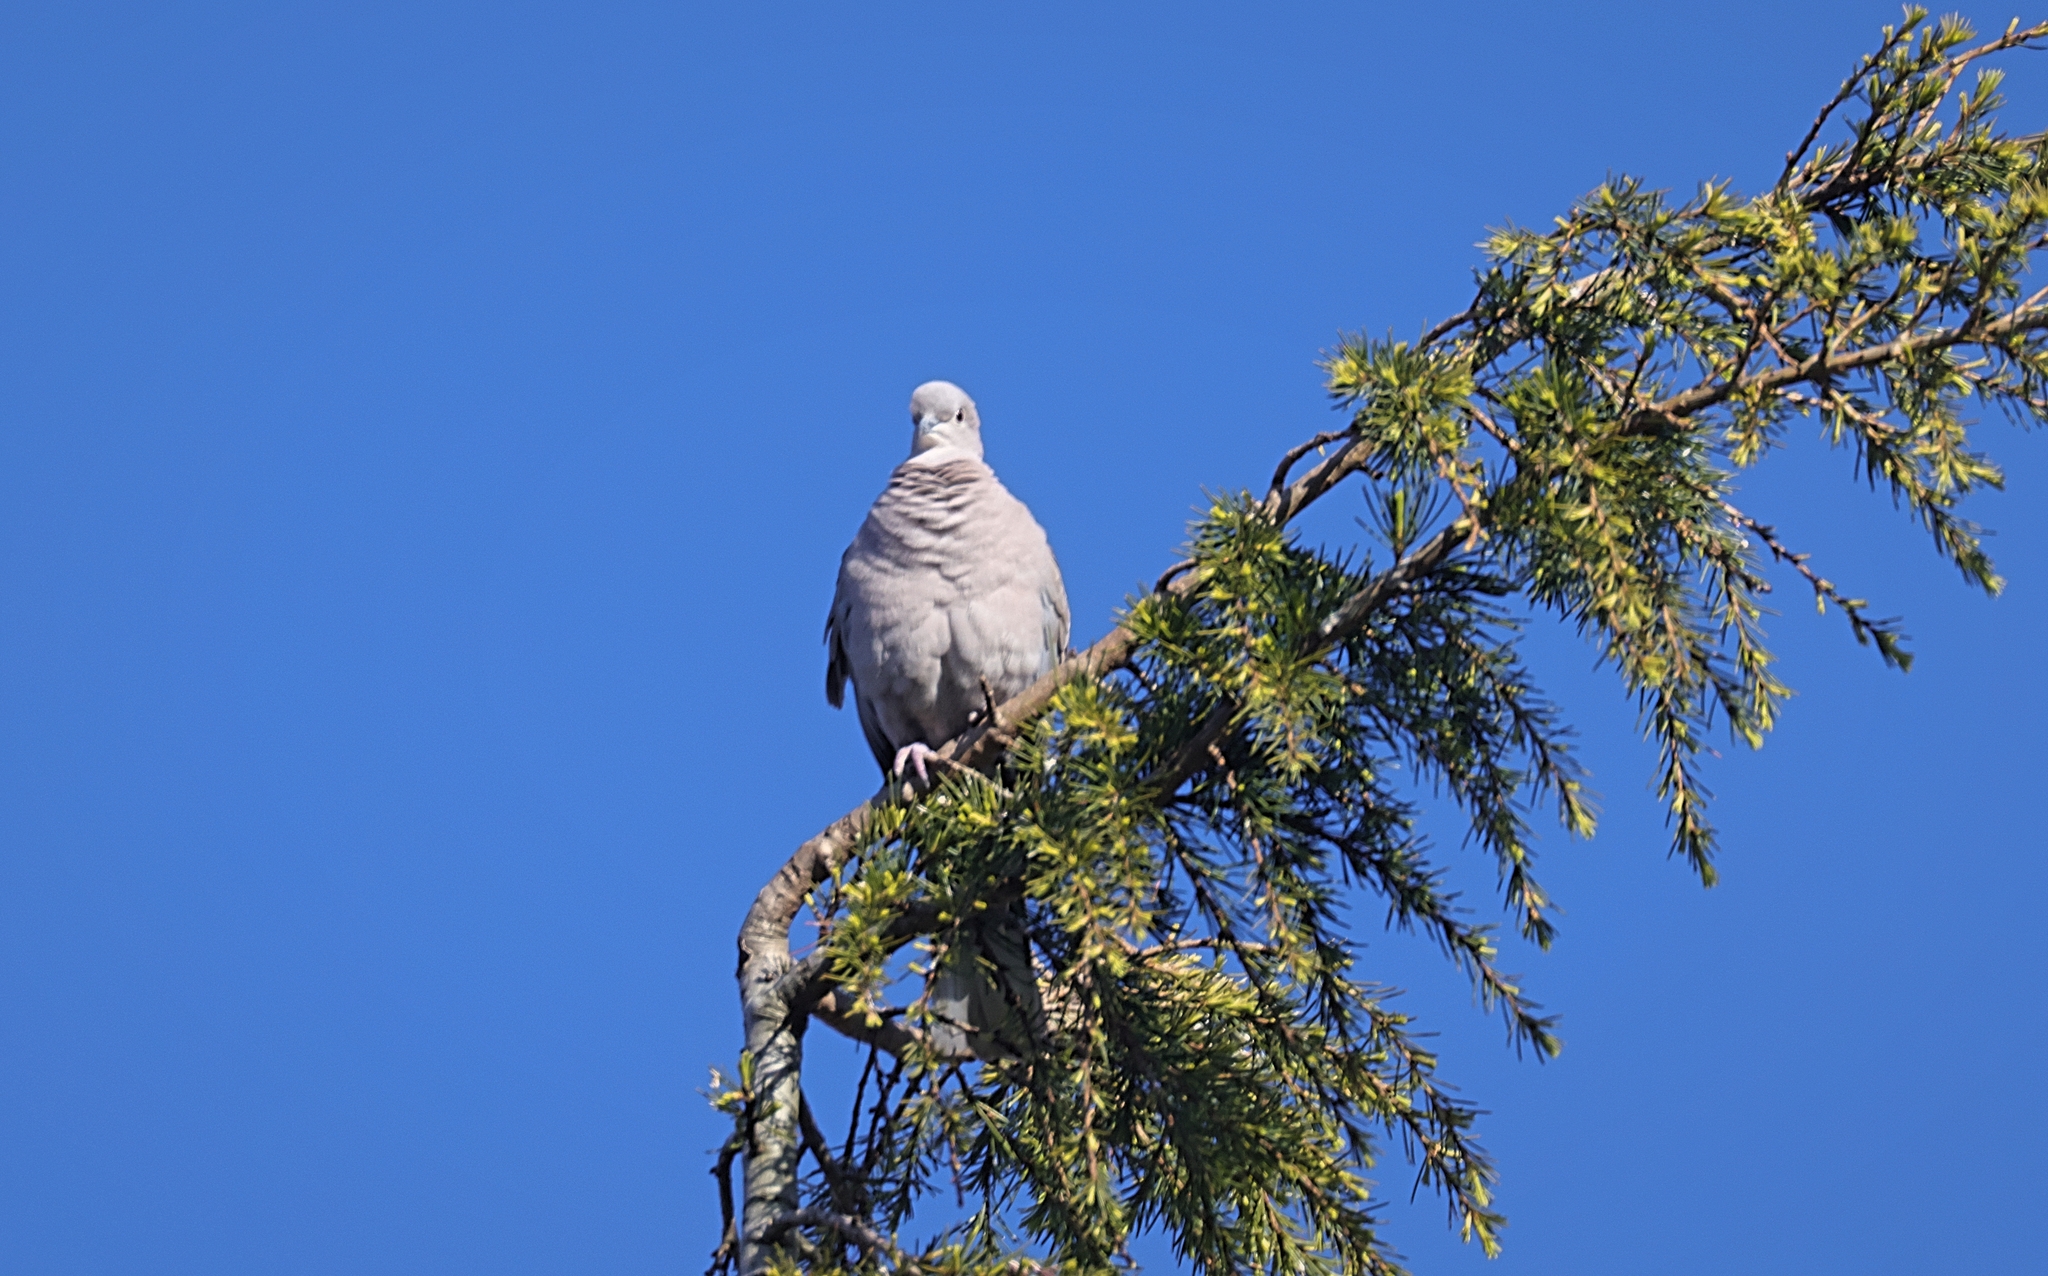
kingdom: Animalia
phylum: Chordata
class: Aves
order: Columbiformes
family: Columbidae
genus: Streptopelia
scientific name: Streptopelia decaocto
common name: Eurasian collared dove
